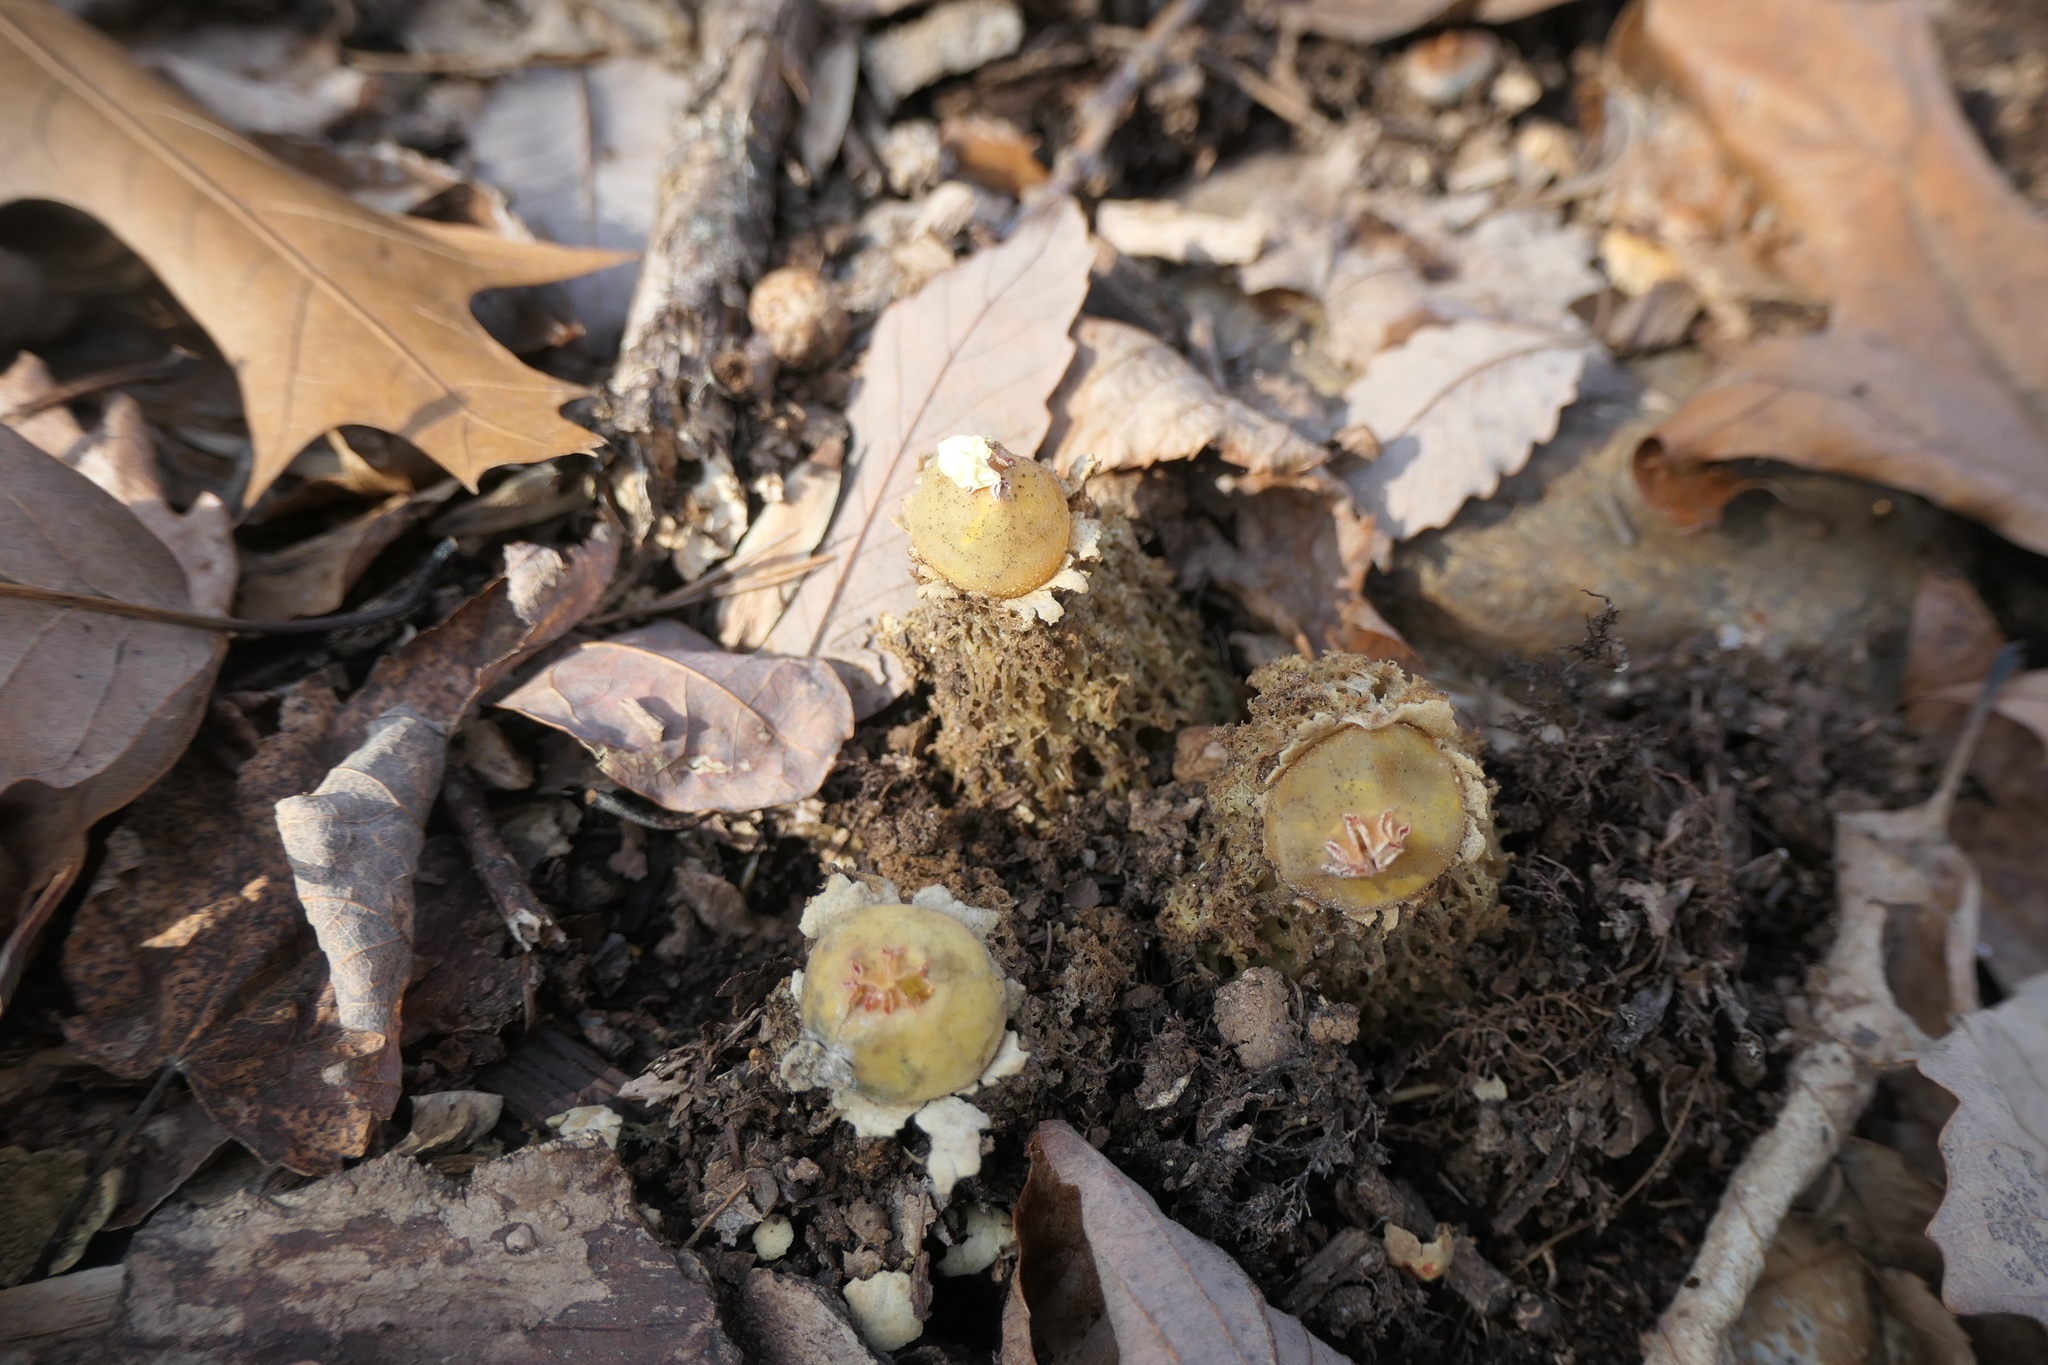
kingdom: Fungi
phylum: Basidiomycota
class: Agaricomycetes
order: Boletales
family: Calostomataceae
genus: Calostoma
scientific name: Calostoma lutescens
